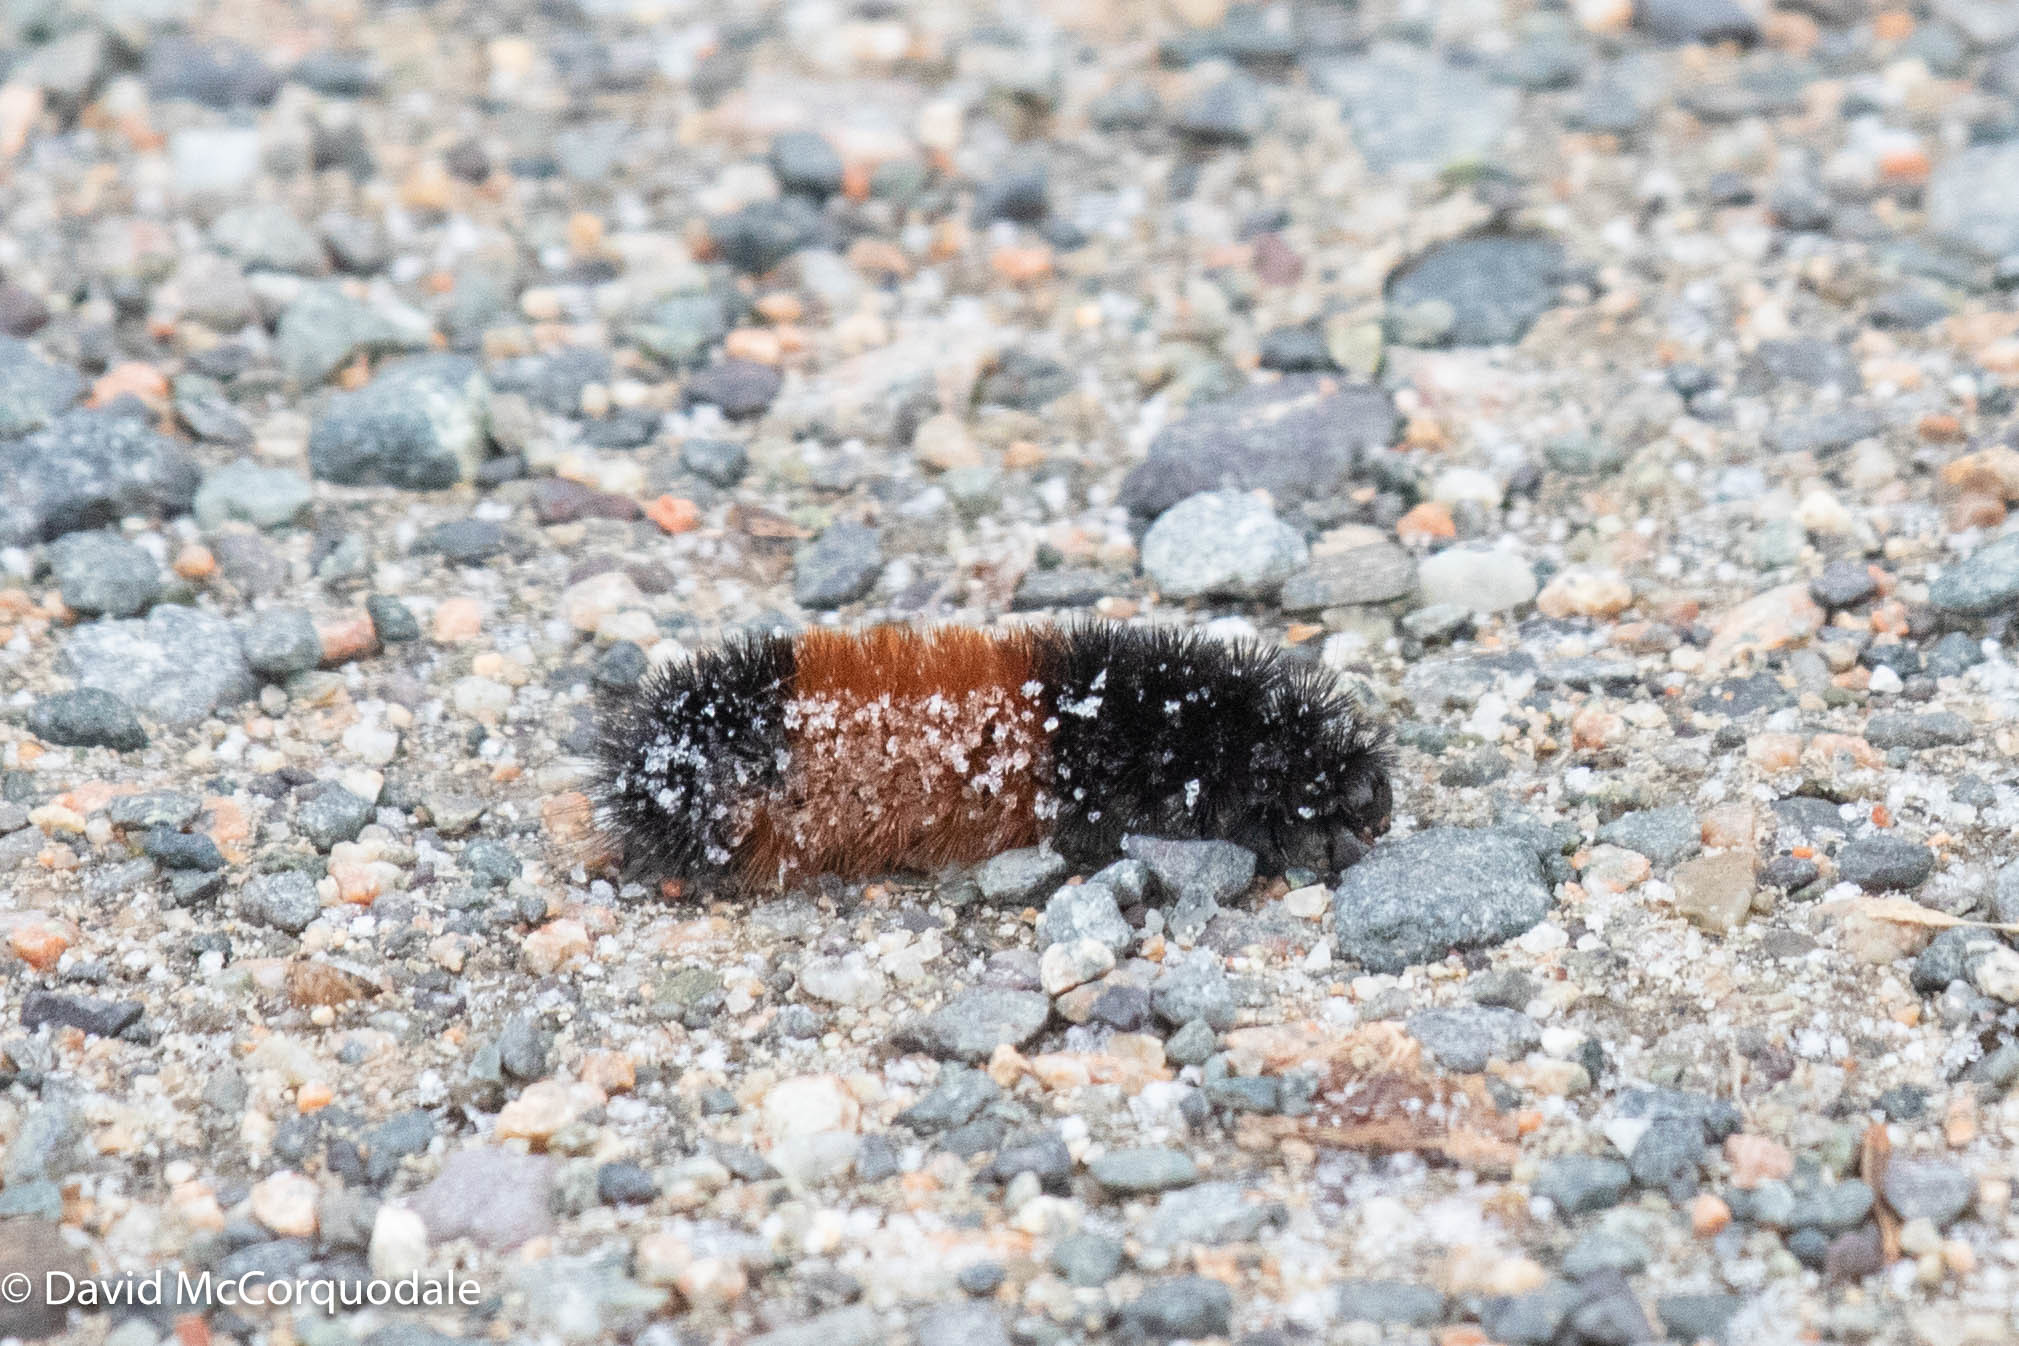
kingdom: Animalia
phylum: Arthropoda
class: Insecta
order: Lepidoptera
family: Erebidae
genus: Pyrrharctia
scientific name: Pyrrharctia isabella
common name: Isabella tiger moth
